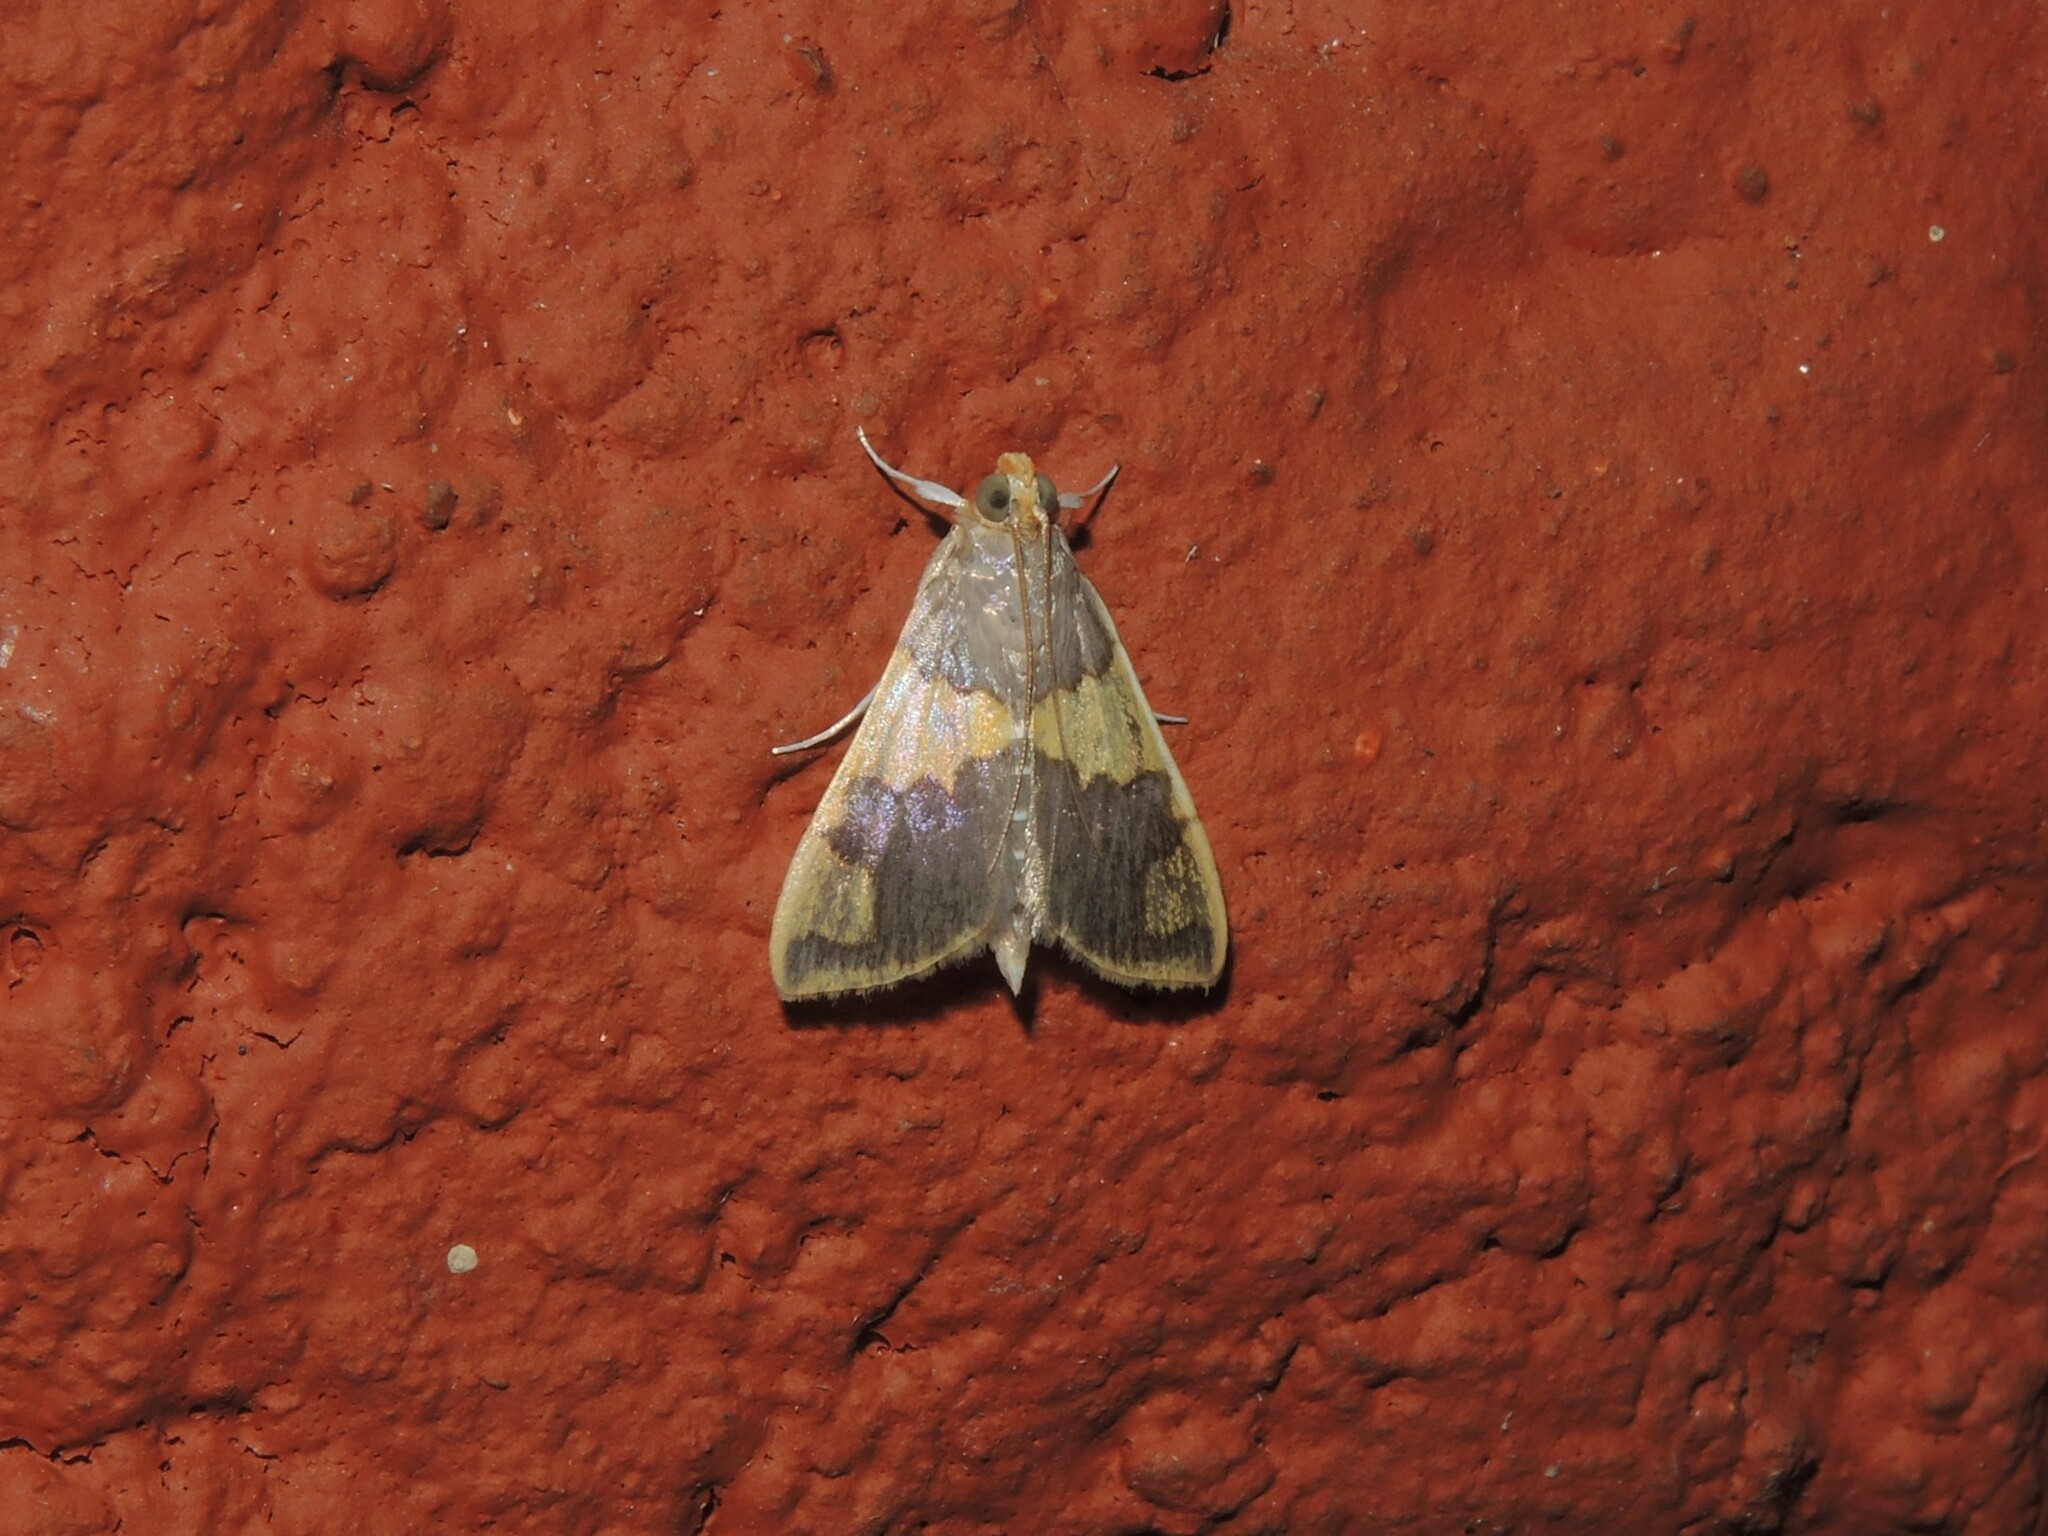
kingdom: Animalia
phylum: Arthropoda
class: Insecta
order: Lepidoptera
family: Crambidae
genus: Rehimena
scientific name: Rehimena phrynealis
